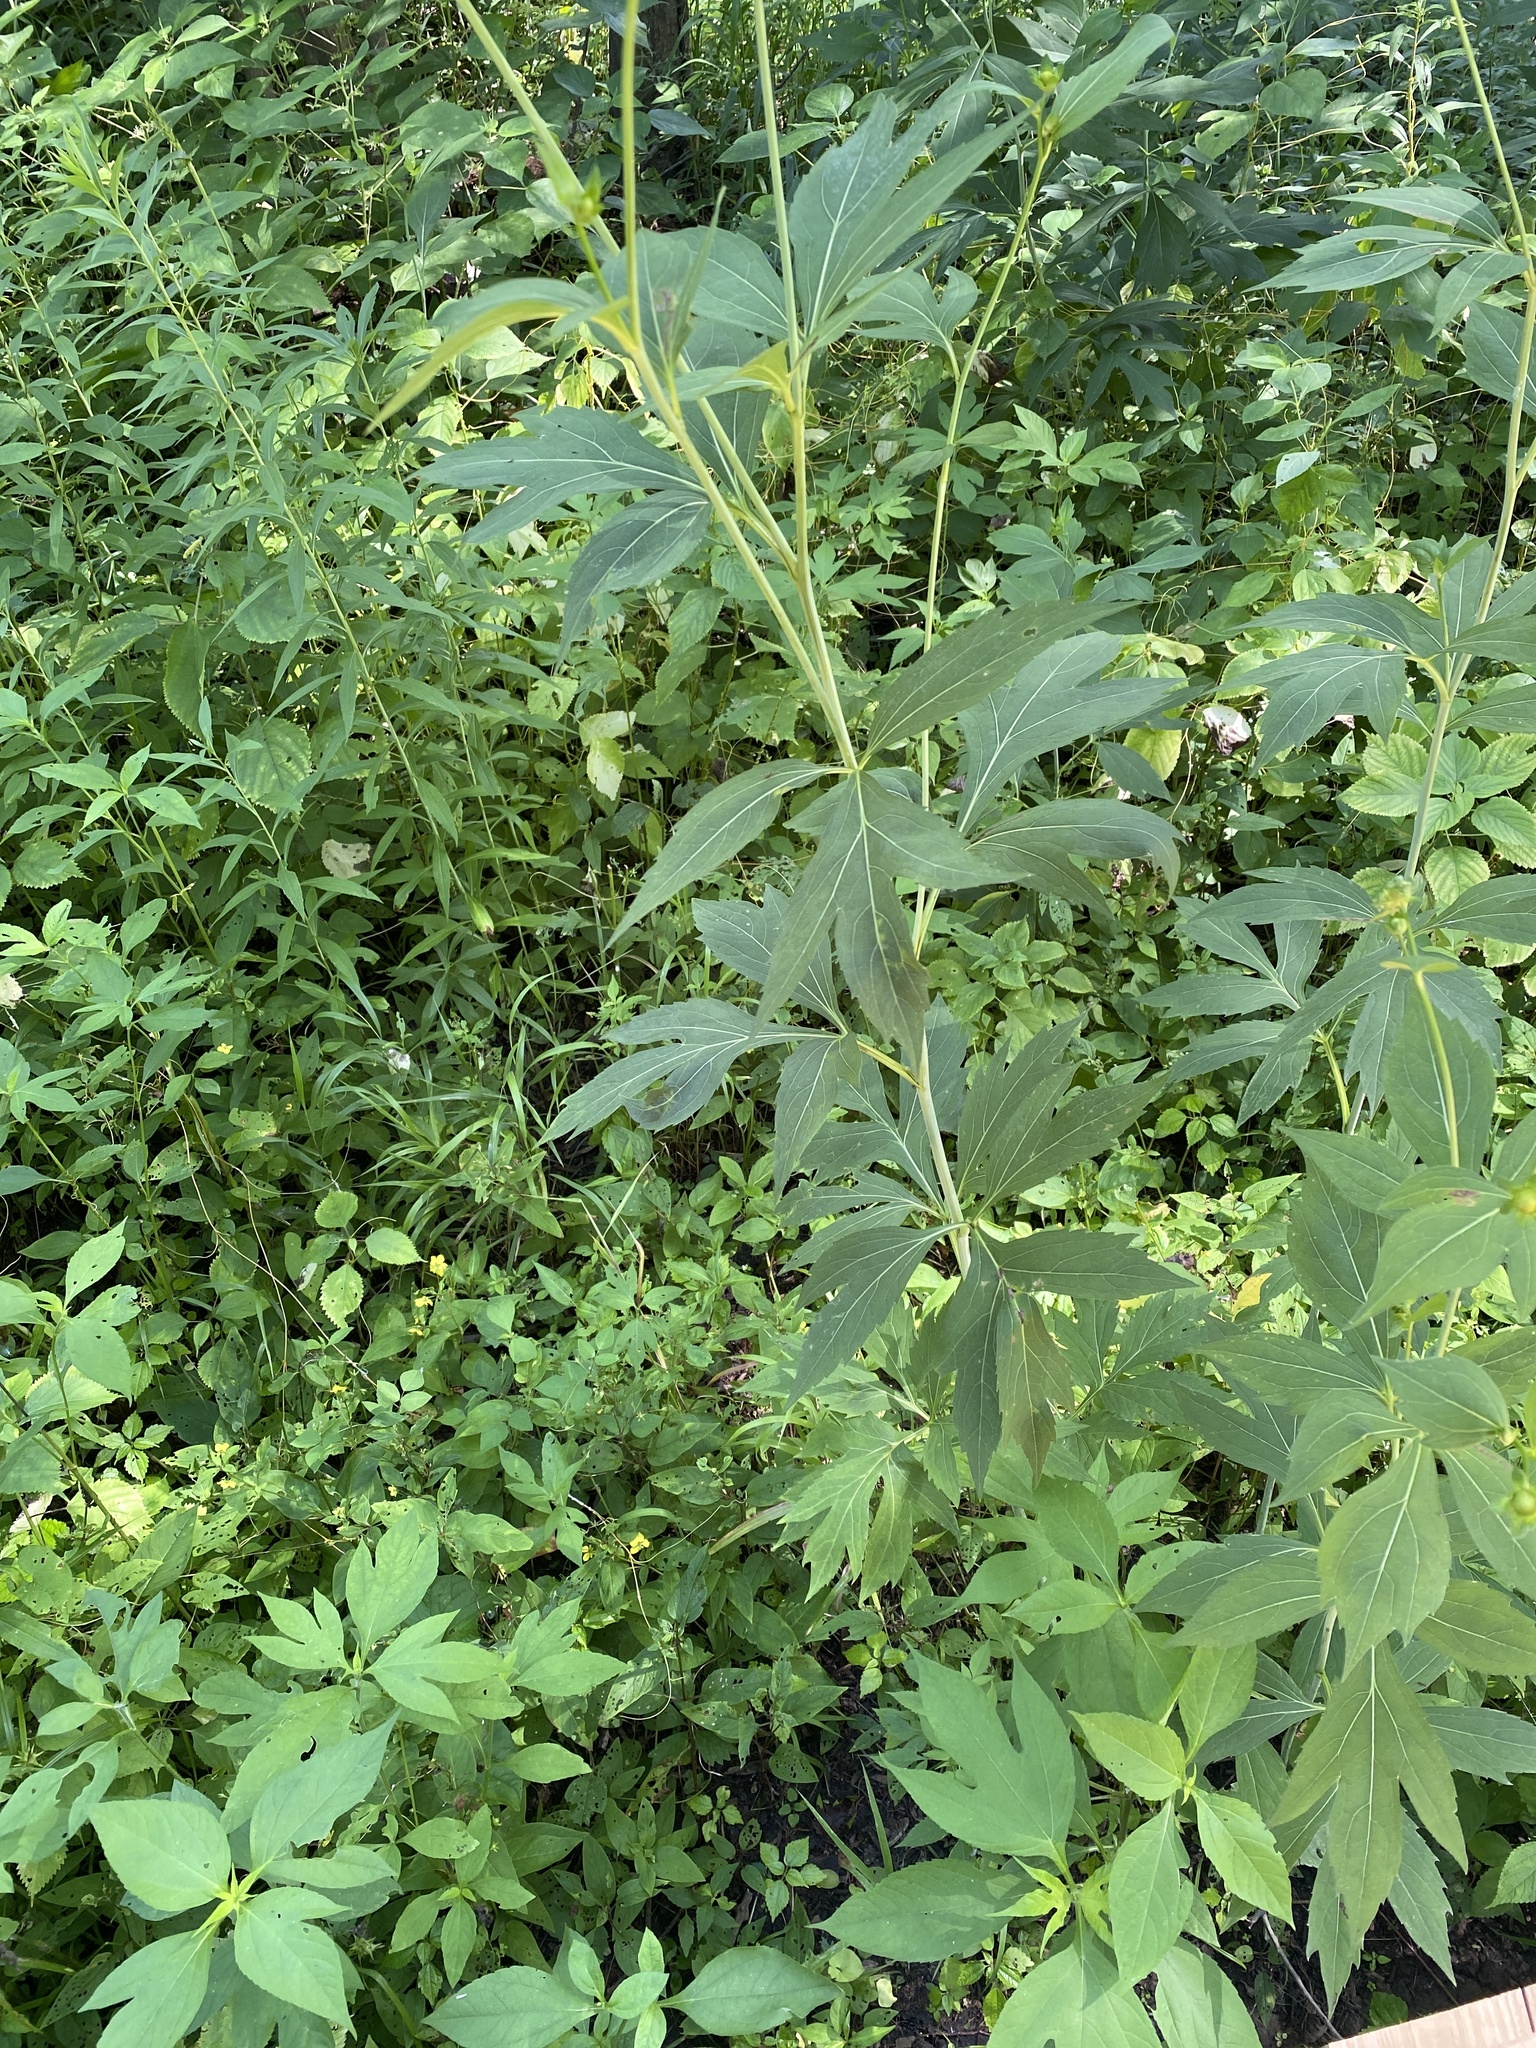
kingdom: Plantae
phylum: Tracheophyta
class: Magnoliopsida
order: Asterales
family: Asteraceae
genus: Rudbeckia
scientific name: Rudbeckia laciniata
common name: Coneflower
